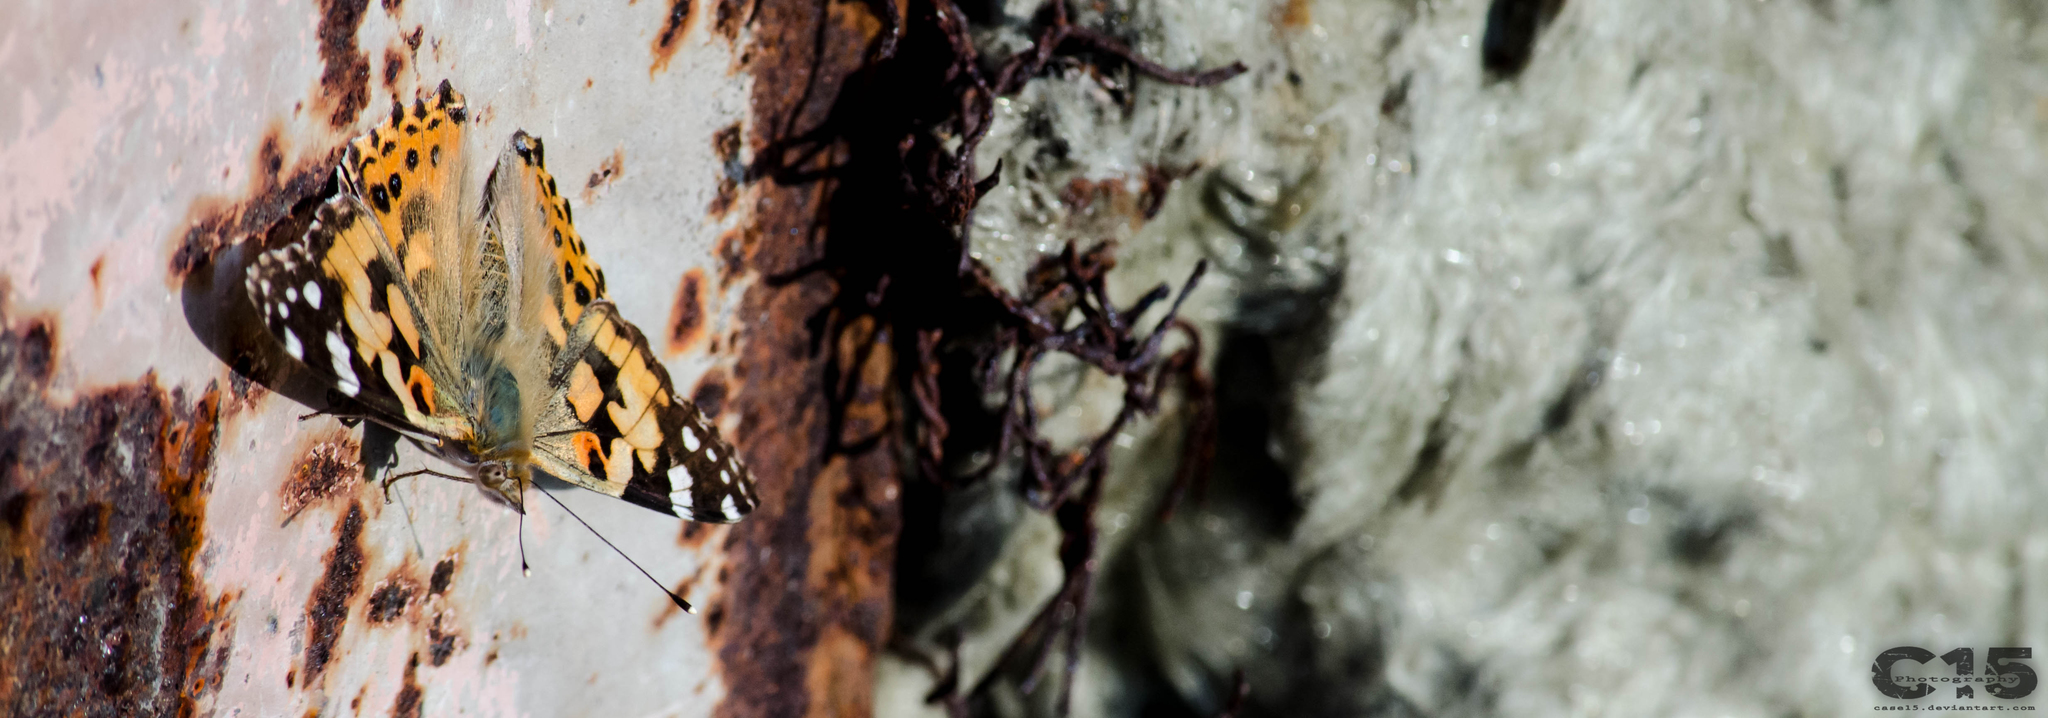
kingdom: Animalia
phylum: Arthropoda
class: Insecta
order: Lepidoptera
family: Nymphalidae
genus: Vanessa
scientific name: Vanessa cardui
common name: Painted lady
